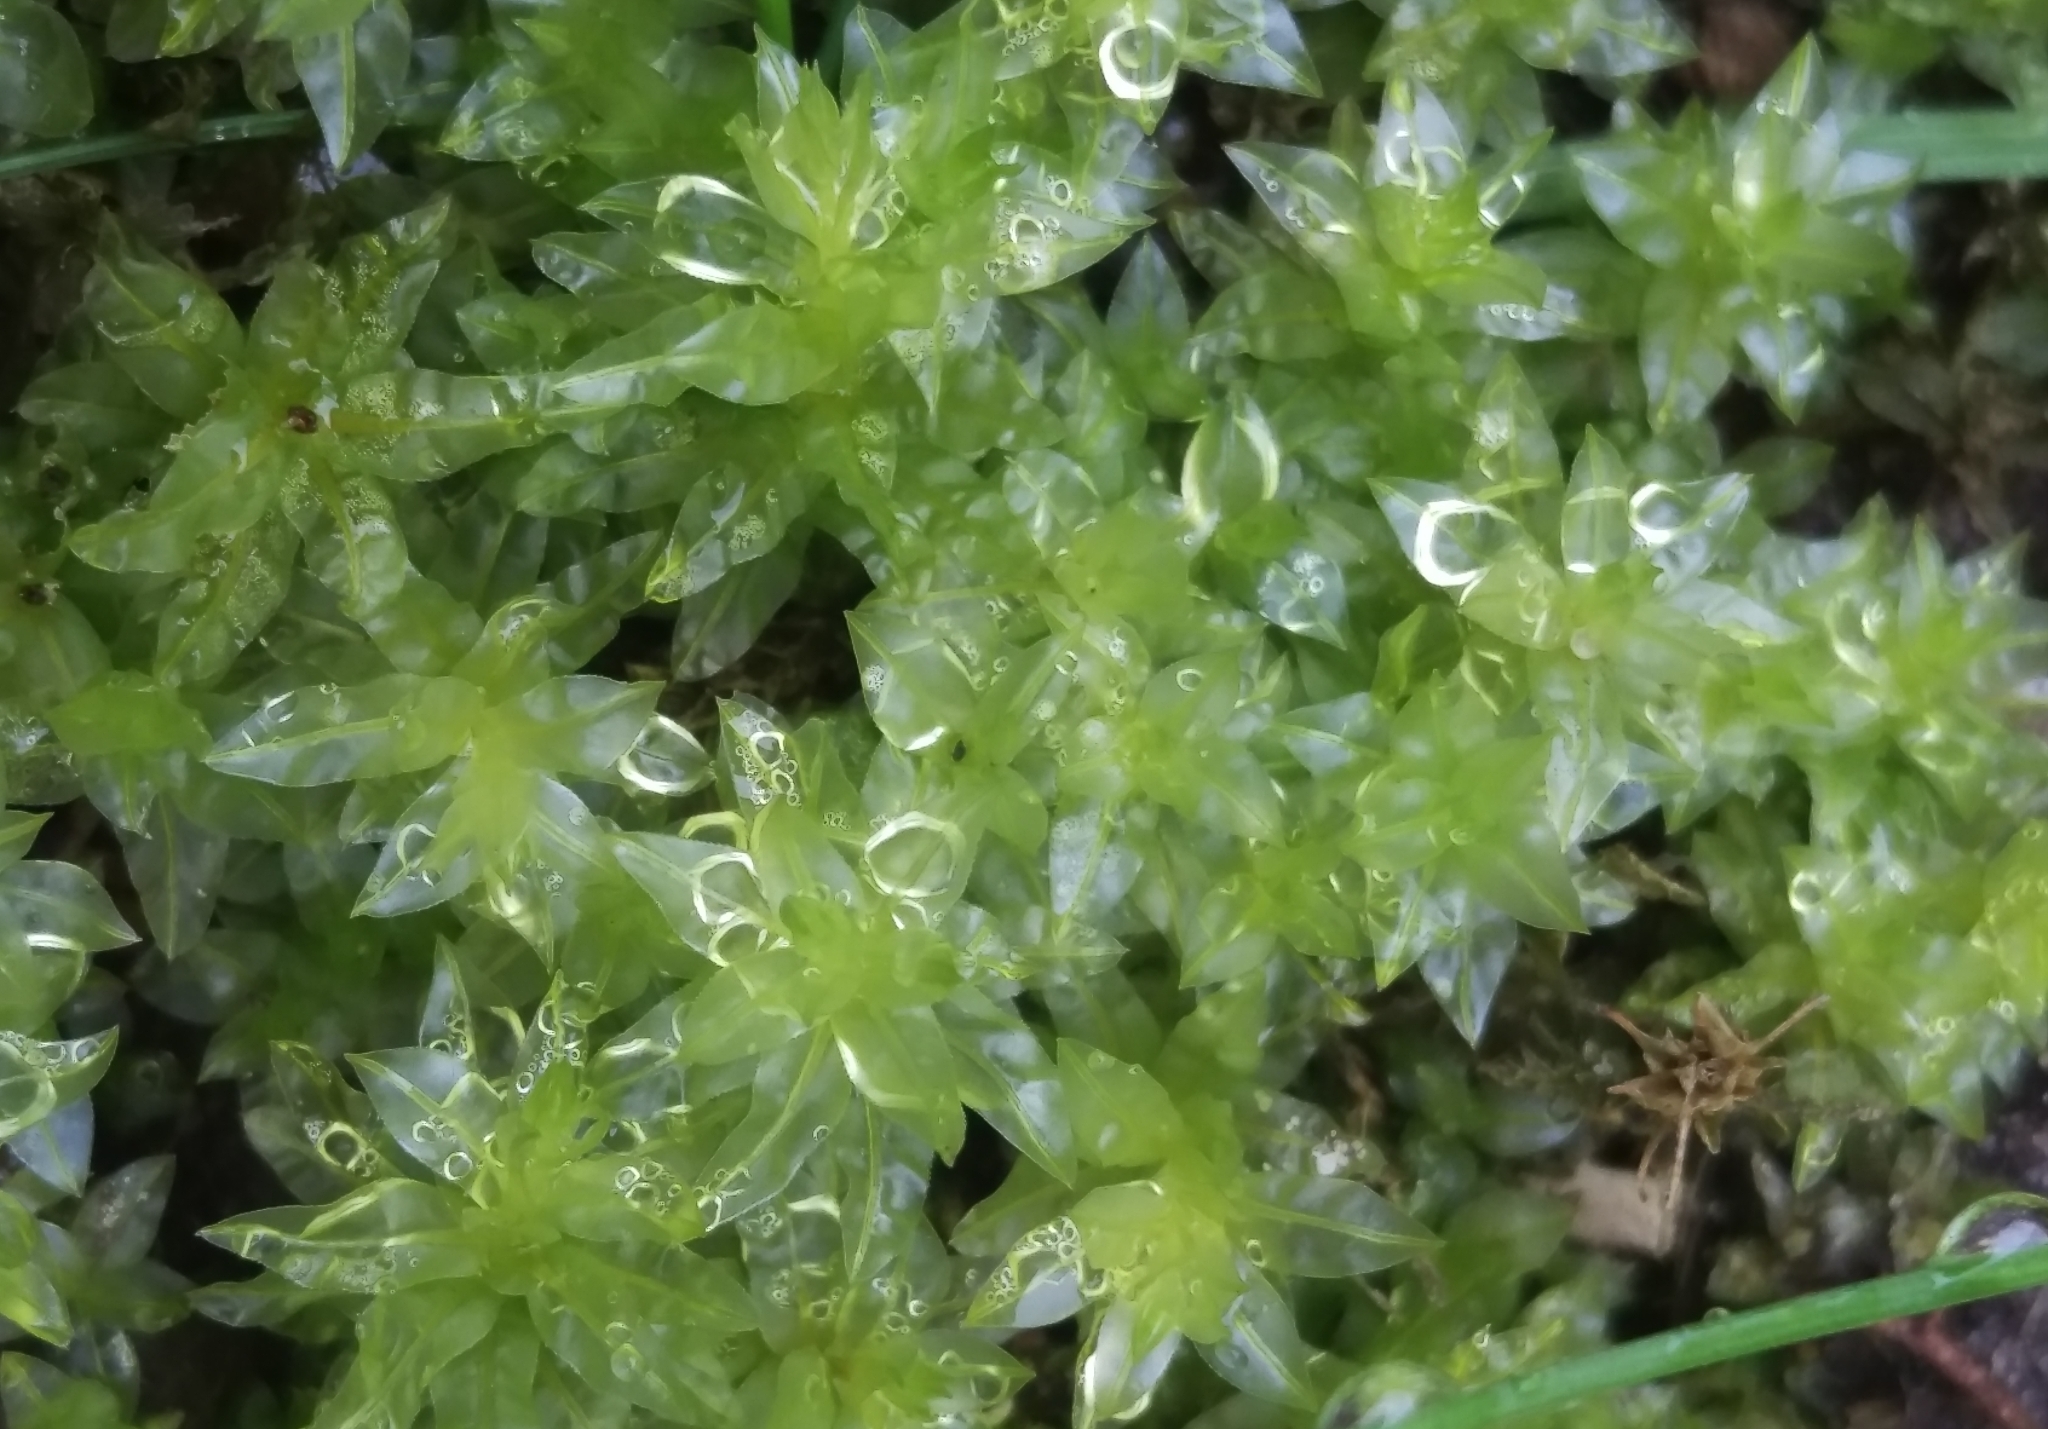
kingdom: Plantae
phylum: Bryophyta
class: Bryopsida
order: Bryales
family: Mniaceae
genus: Plagiomnium
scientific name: Plagiomnium undulatum
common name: Hart's-tongue thyme-moss
